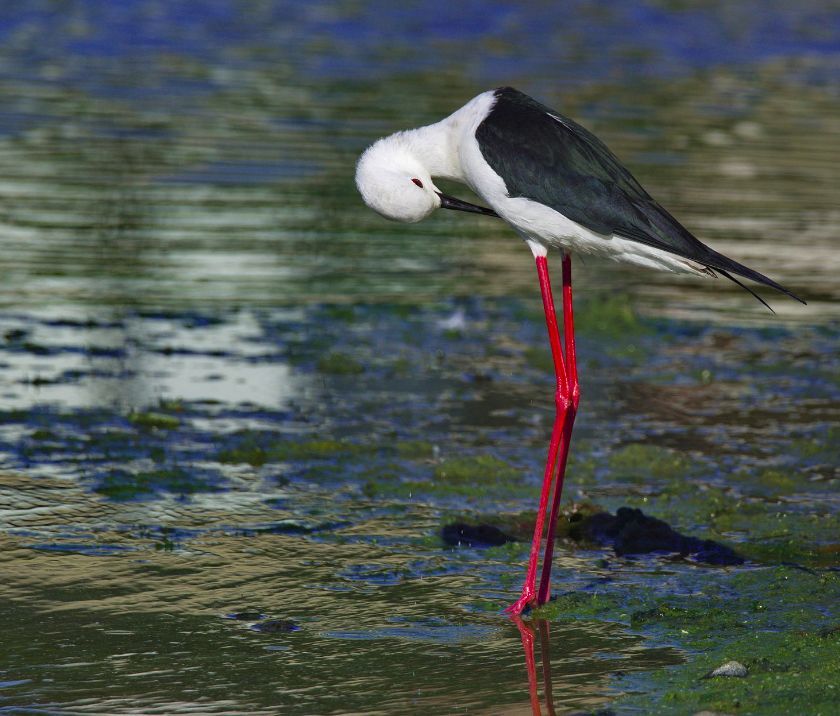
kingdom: Animalia
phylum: Chordata
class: Aves
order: Charadriiformes
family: Recurvirostridae
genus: Himantopus
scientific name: Himantopus himantopus
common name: Black-winged stilt
